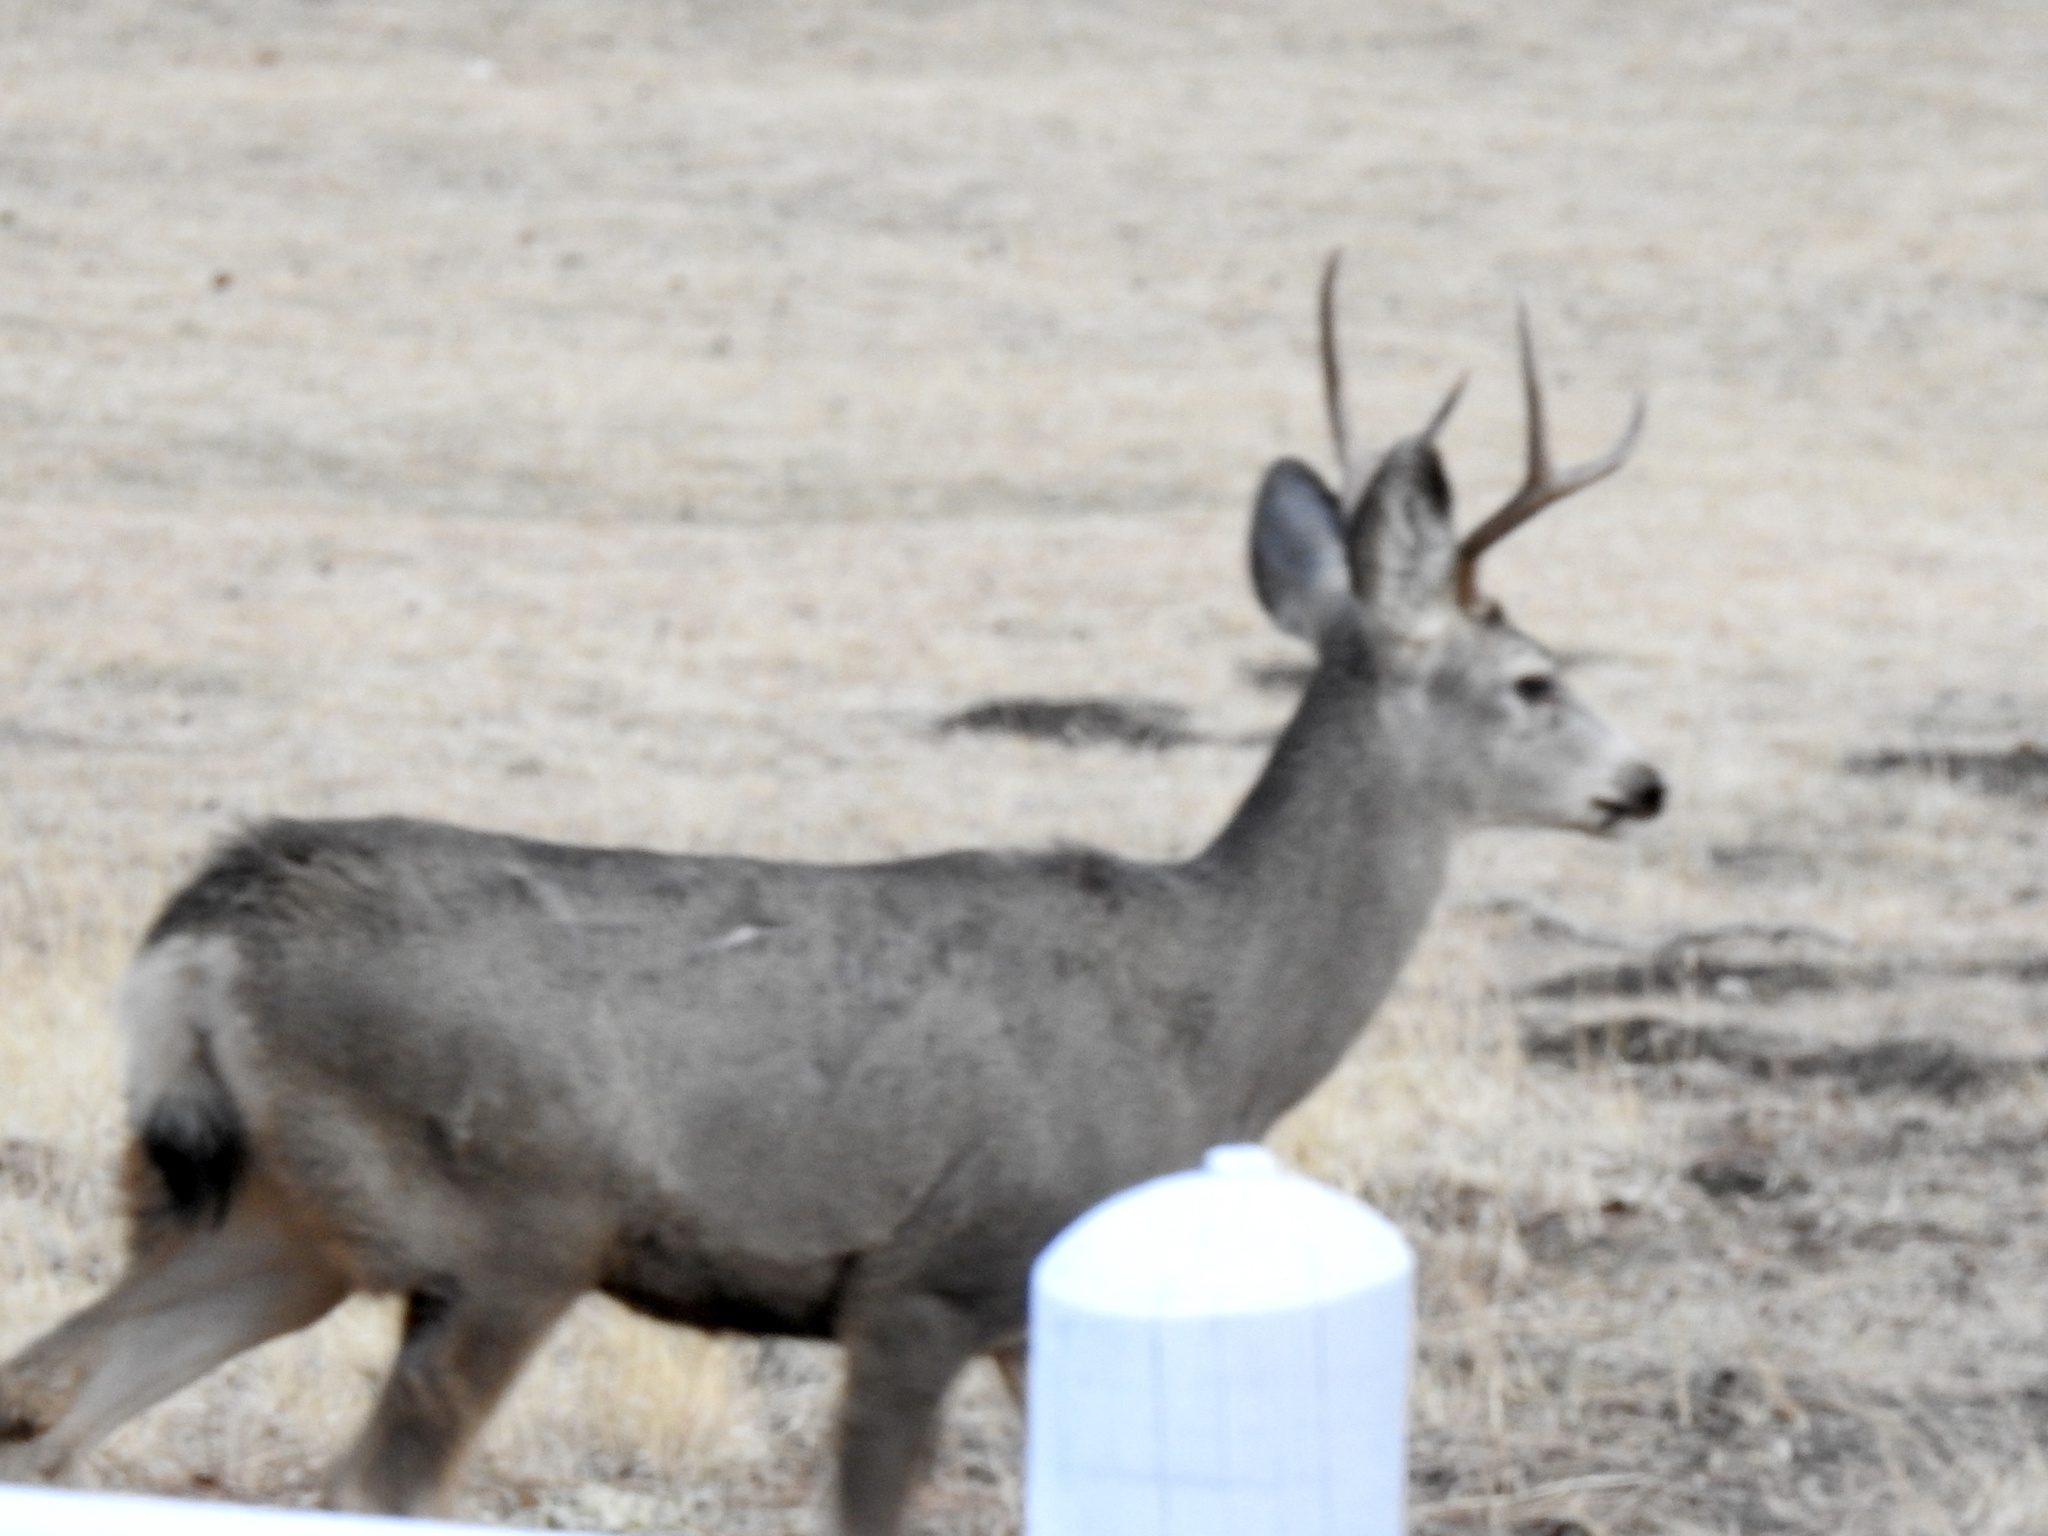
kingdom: Animalia
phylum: Chordata
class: Mammalia
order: Artiodactyla
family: Cervidae
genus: Odocoileus
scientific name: Odocoileus hemionus
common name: Mule deer
